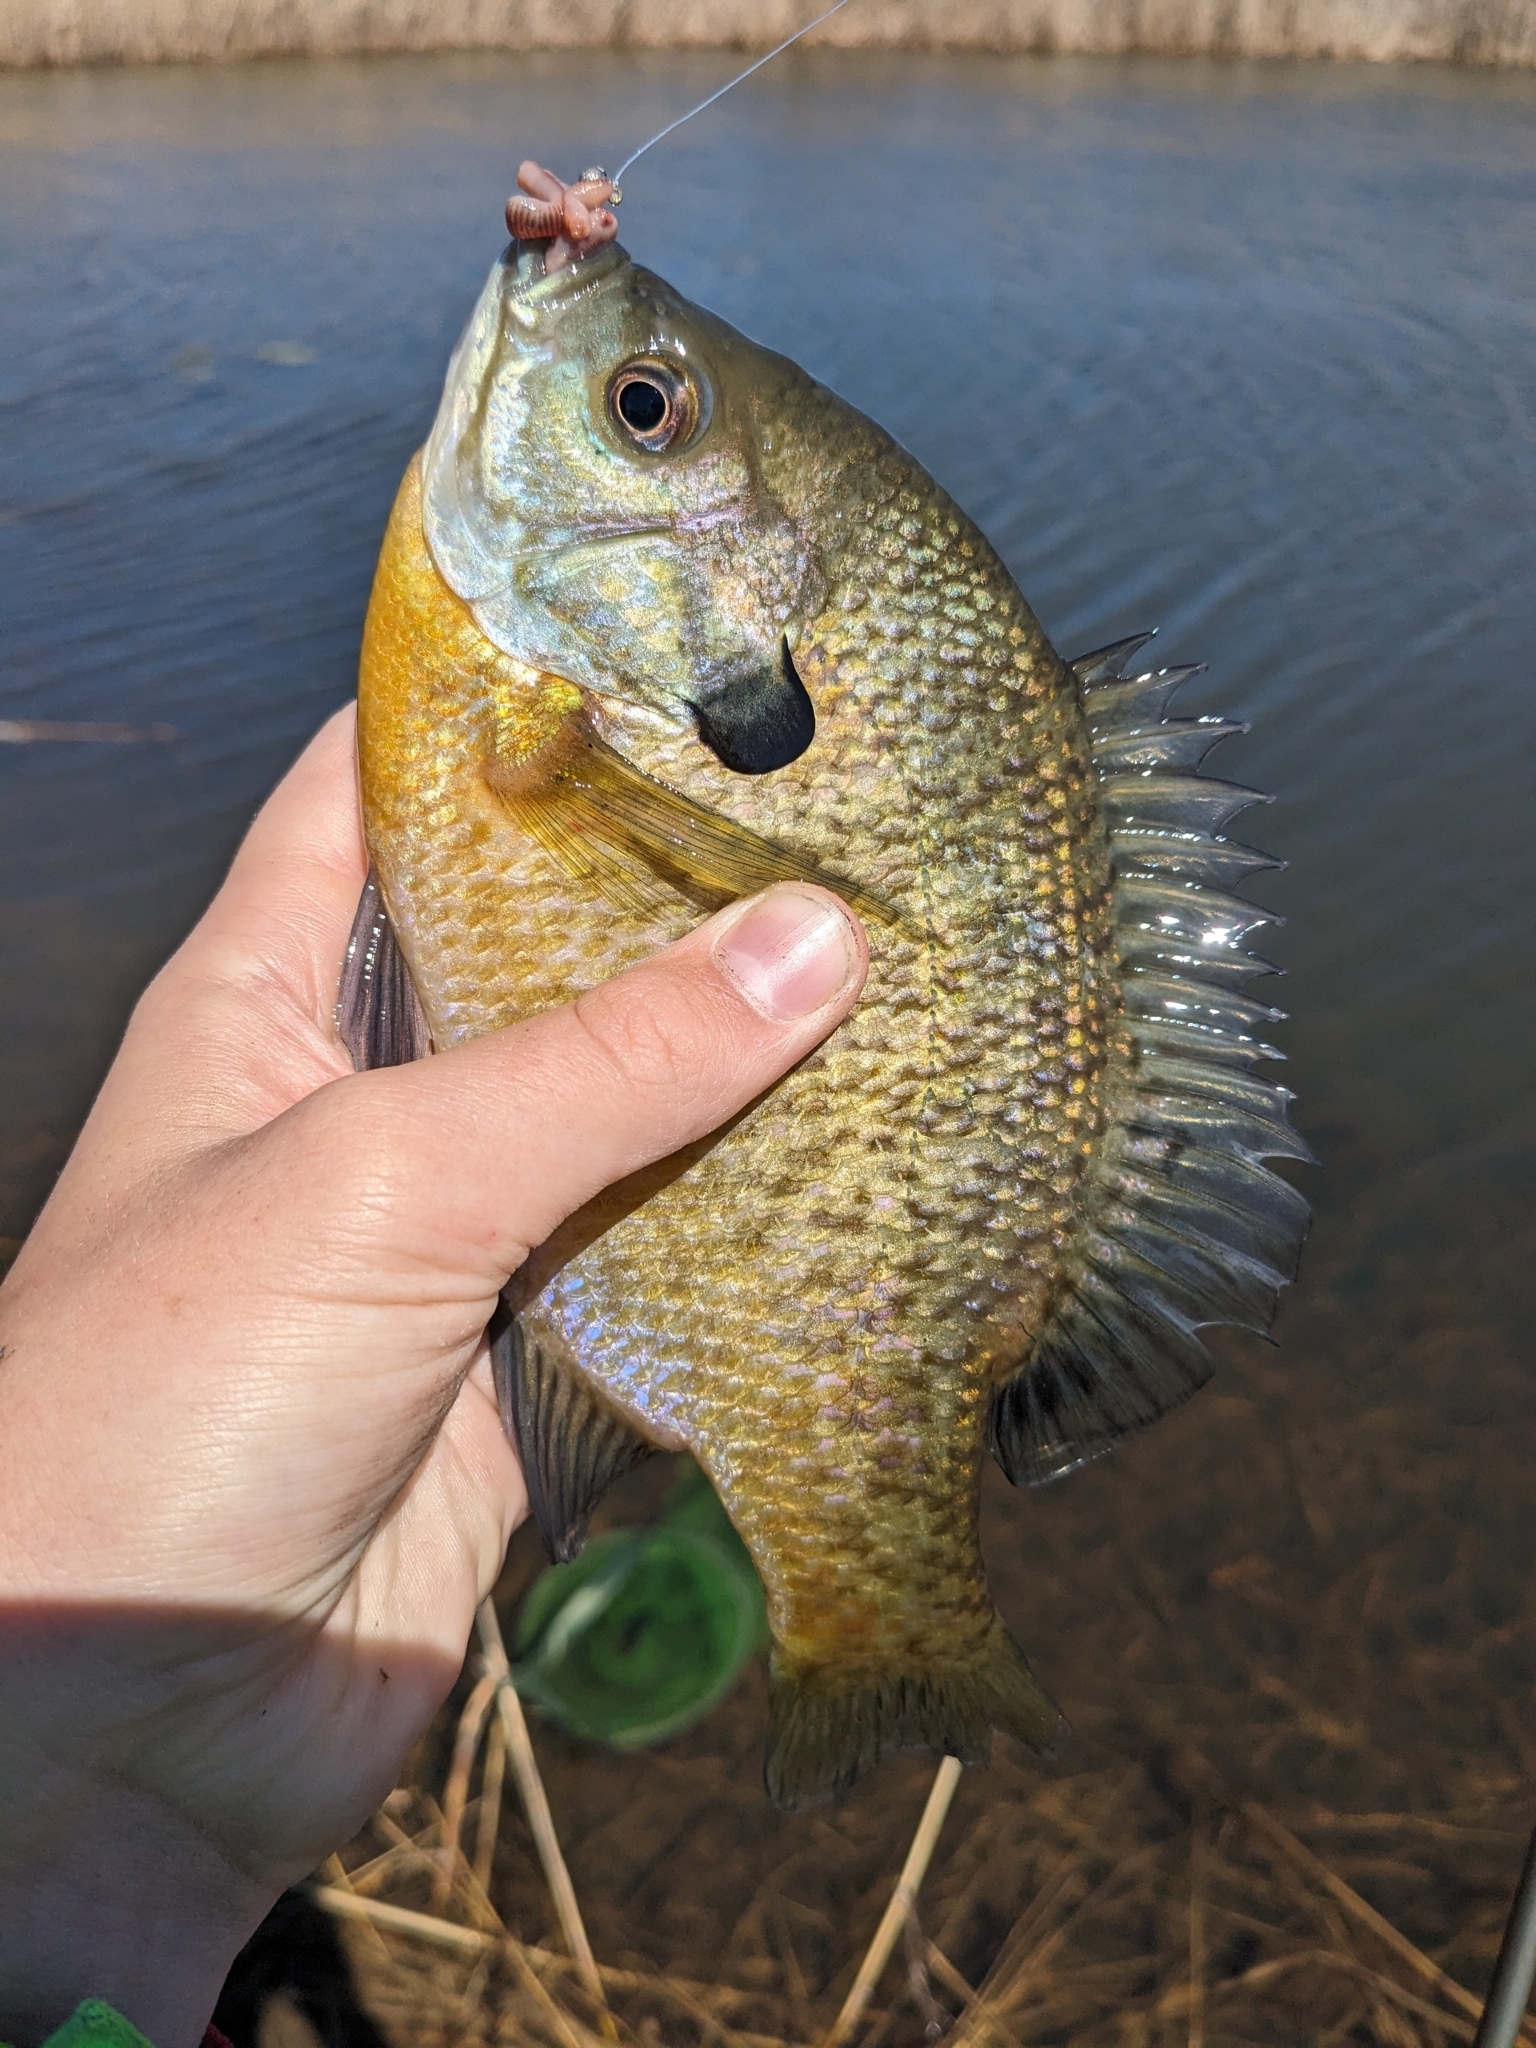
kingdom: Animalia
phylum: Chordata
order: Perciformes
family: Centrarchidae
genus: Lepomis
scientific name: Lepomis macrochirus
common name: Bluegill
